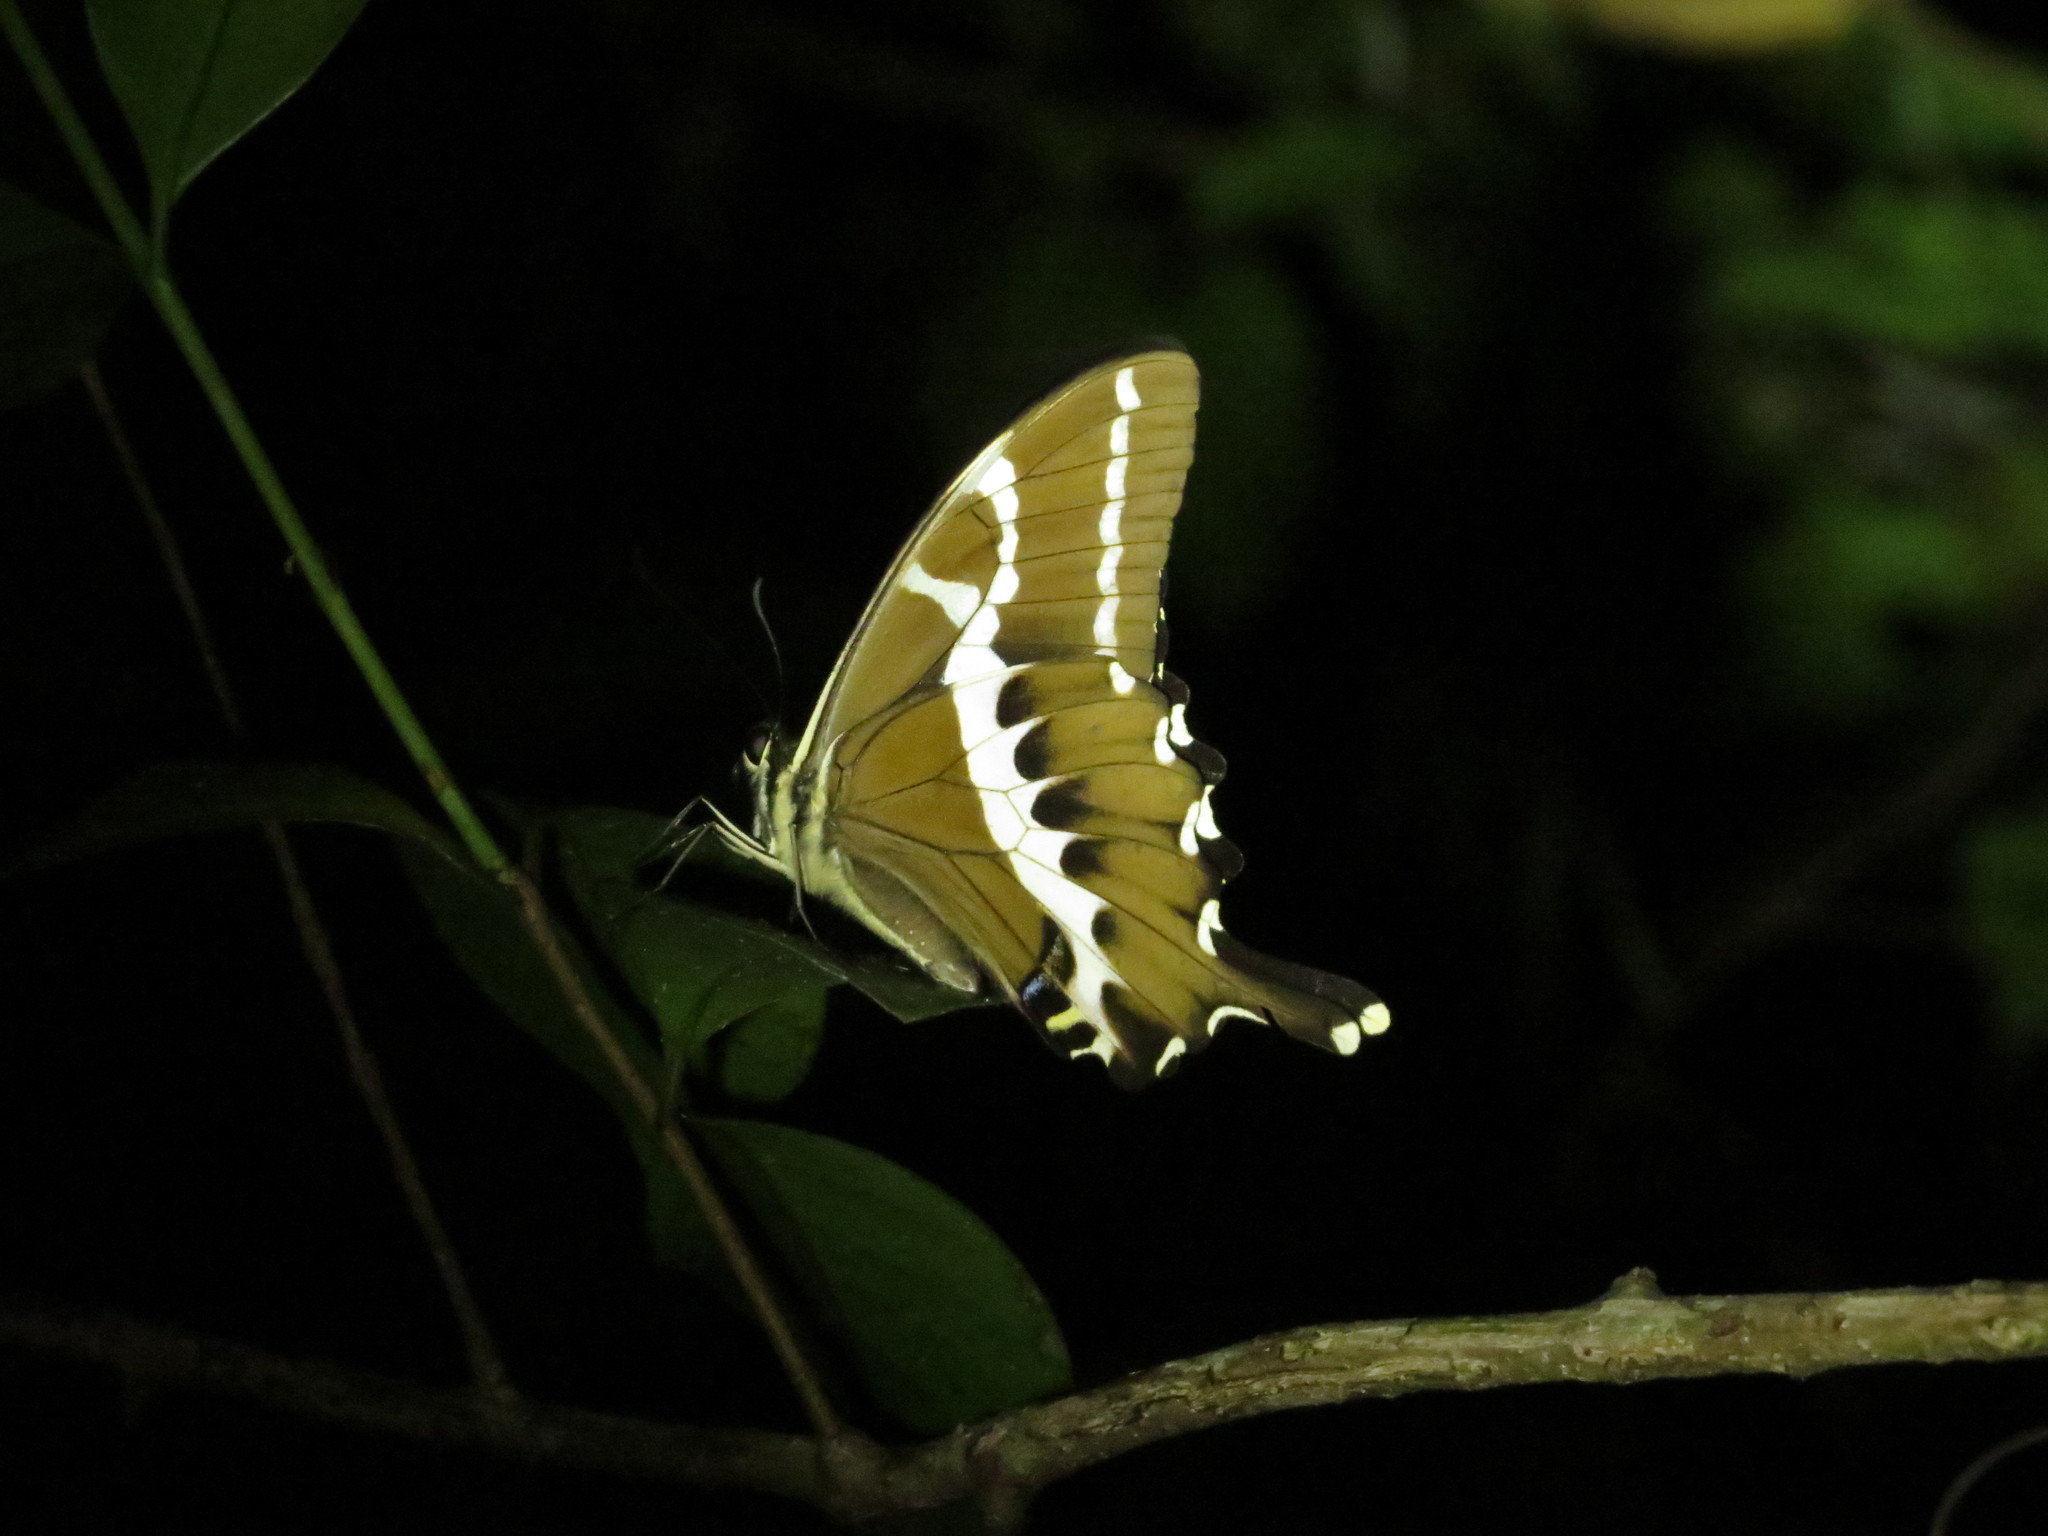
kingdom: Animalia
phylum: Arthropoda
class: Insecta
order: Lepidoptera
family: Papilionidae
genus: Papilio
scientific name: Papilio delalandei
